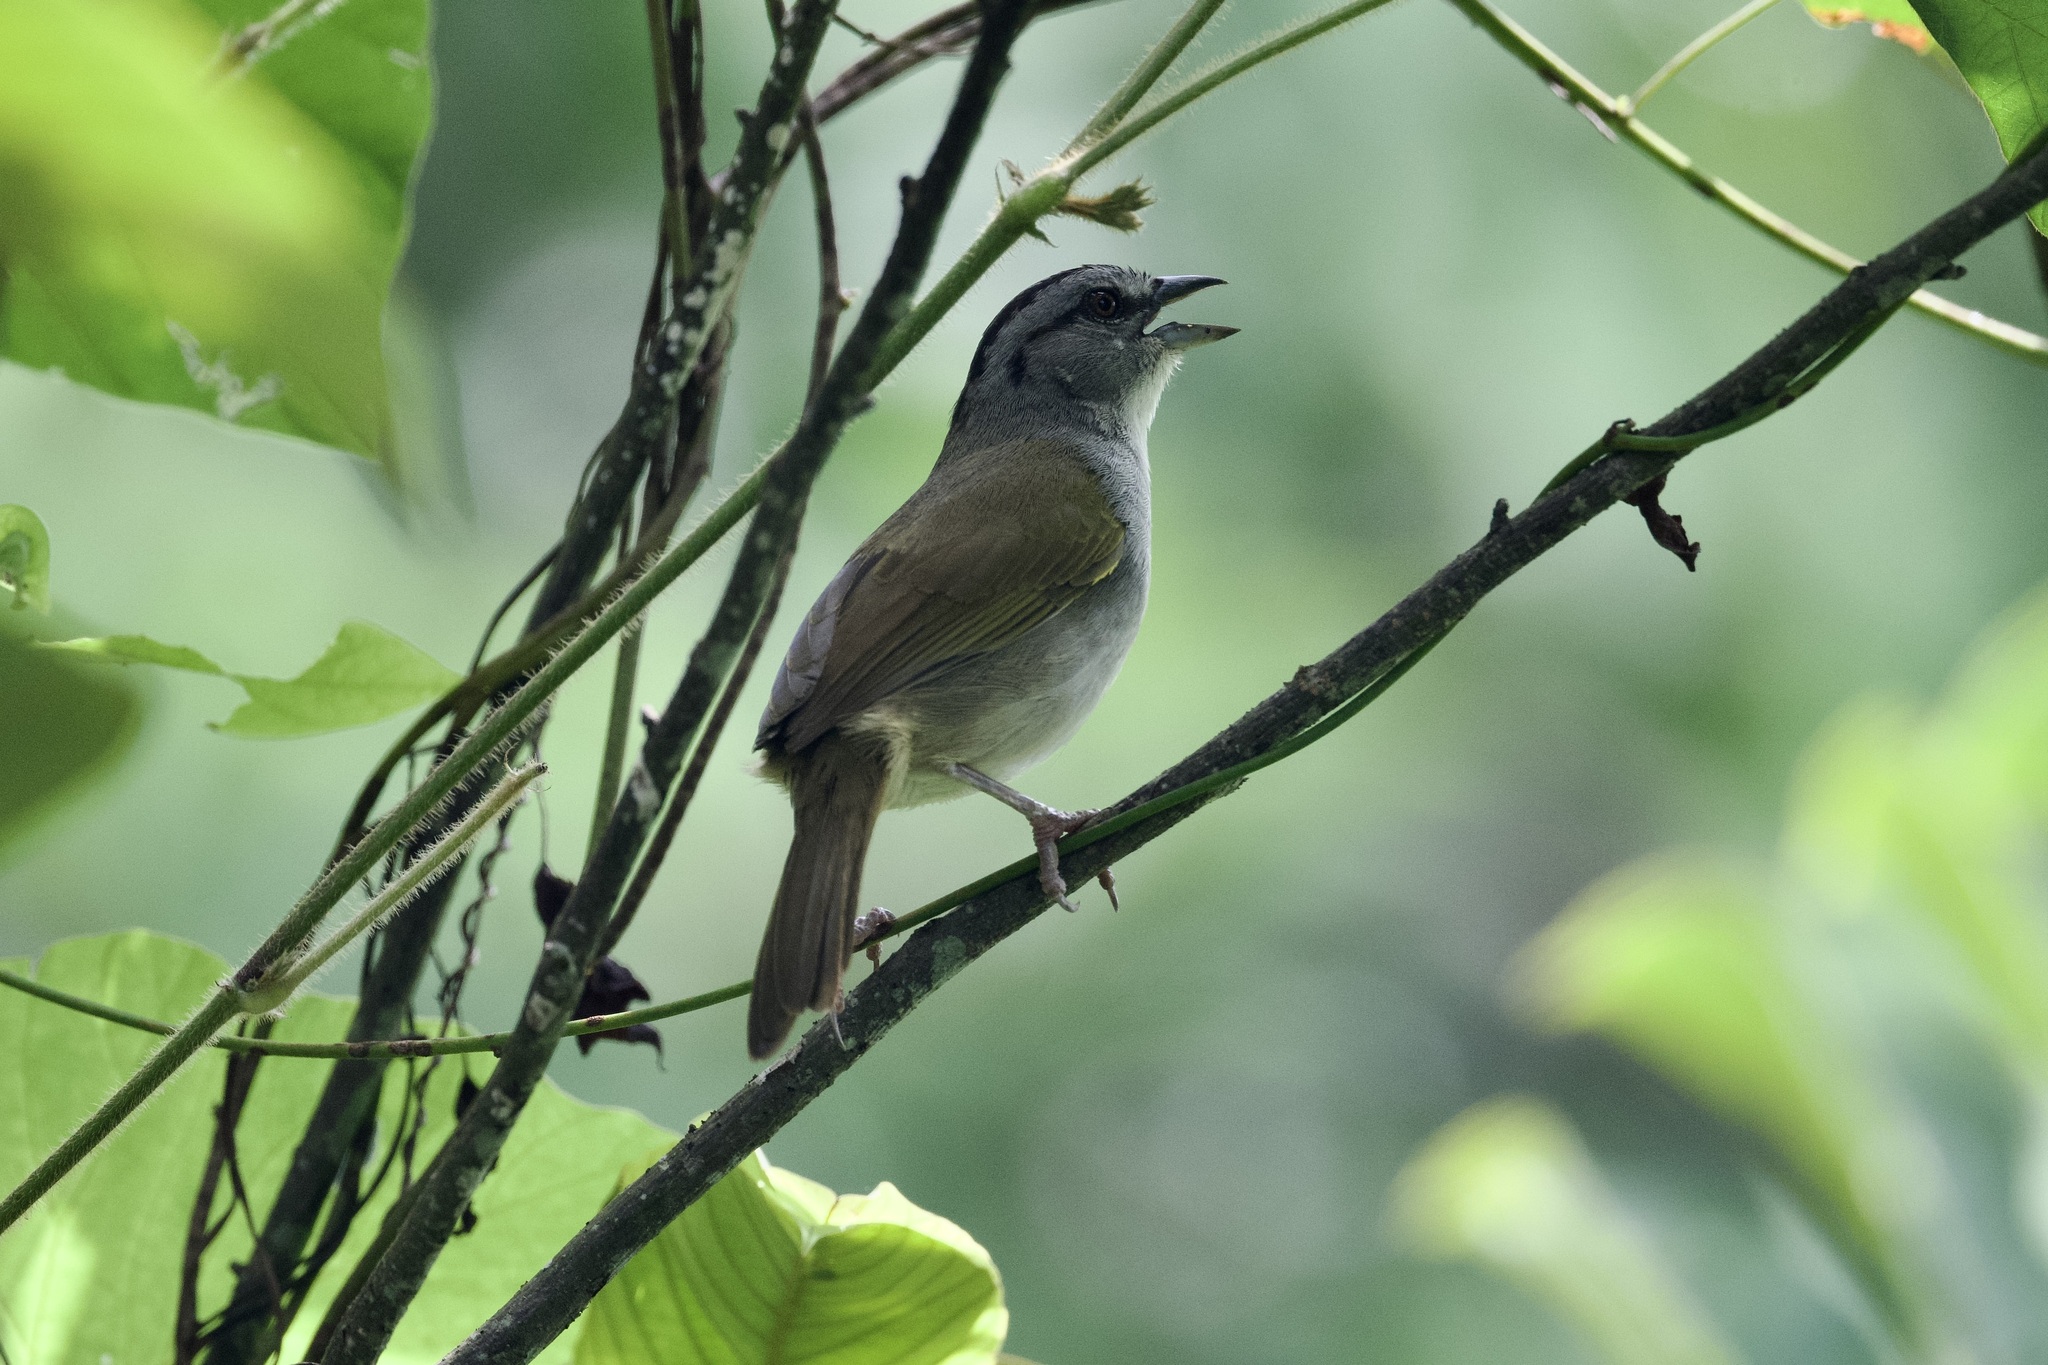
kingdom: Animalia
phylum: Chordata
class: Aves
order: Passeriformes
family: Passerellidae
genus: Arremonops
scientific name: Arremonops conirostris
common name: Black-striped sparrow
